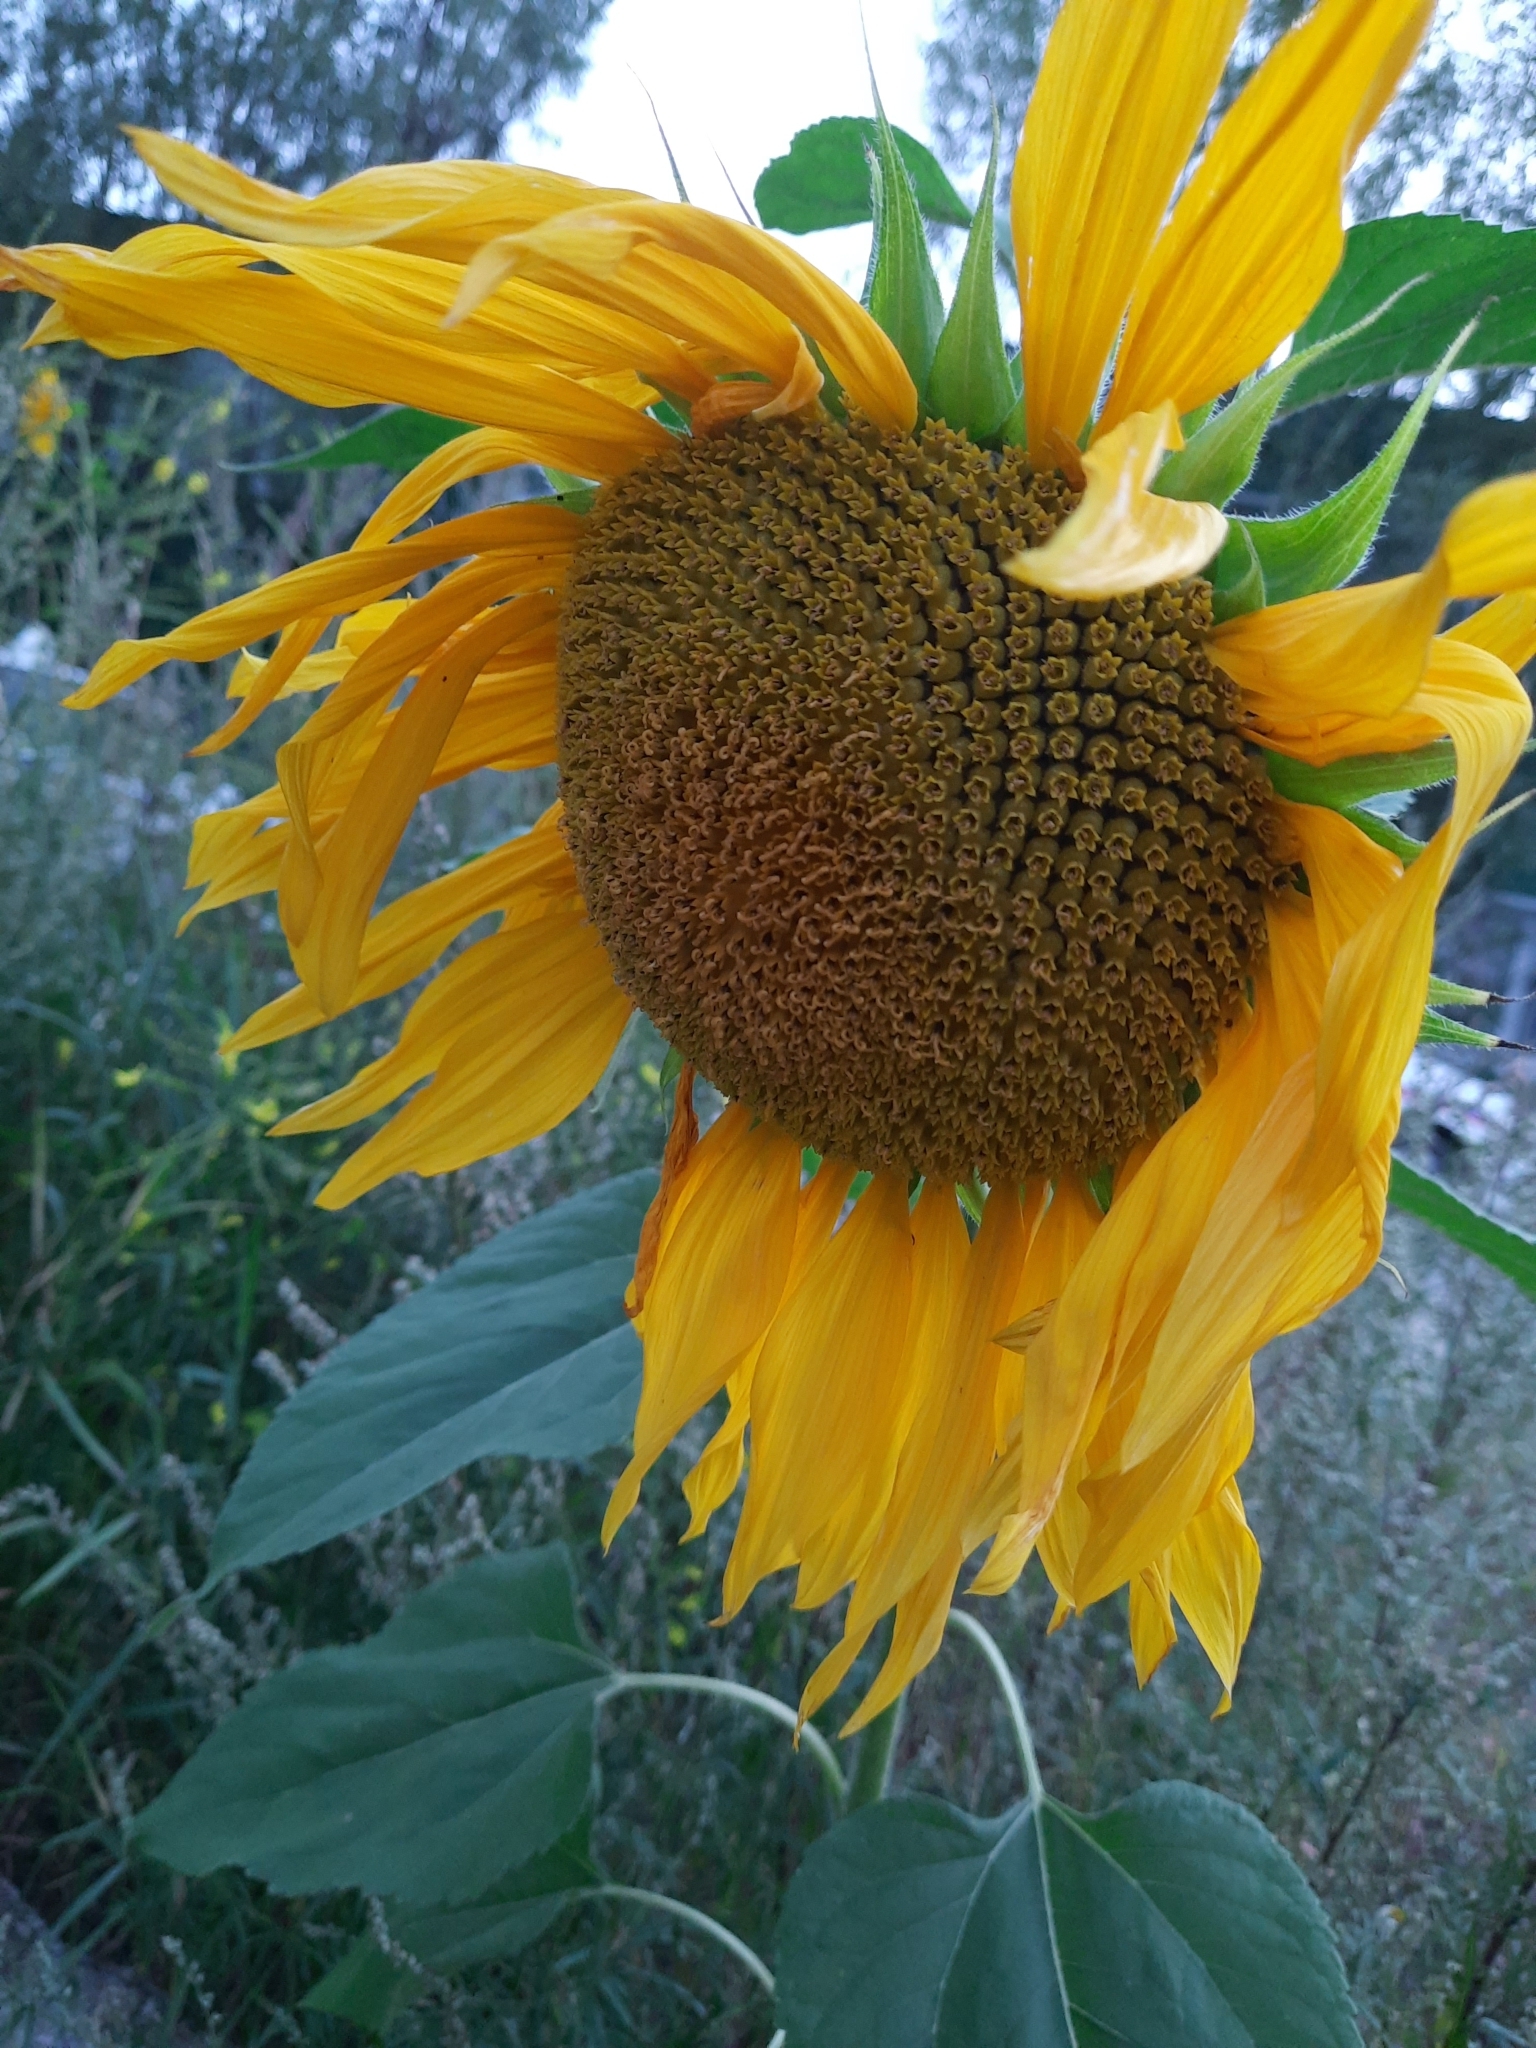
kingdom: Plantae
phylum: Tracheophyta
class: Magnoliopsida
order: Asterales
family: Asteraceae
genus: Helianthus
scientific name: Helianthus annuus
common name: Sunflower
